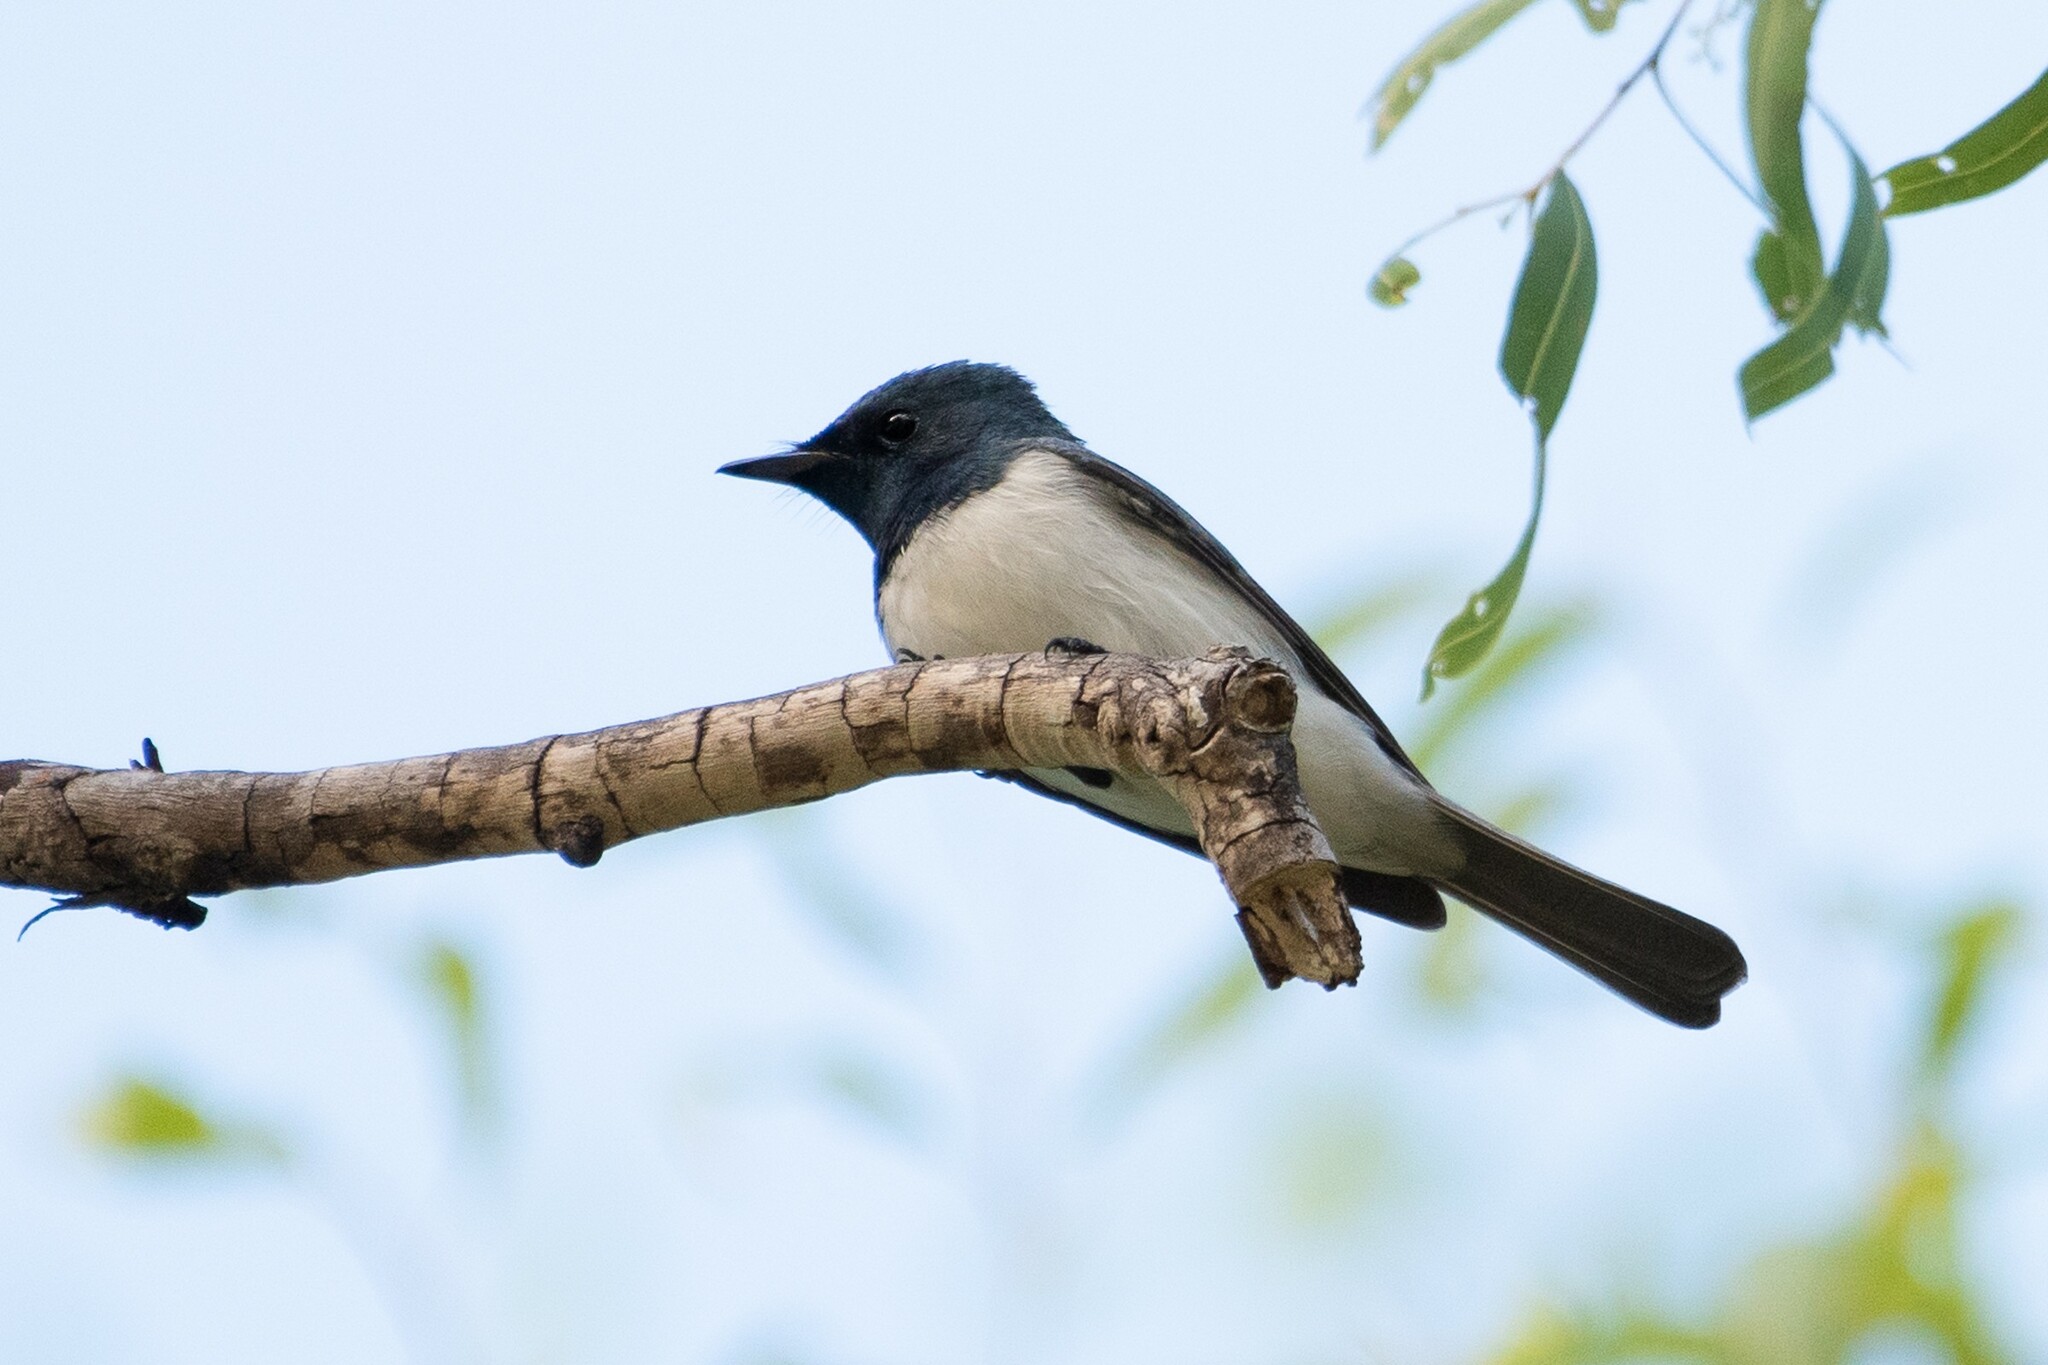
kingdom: Animalia
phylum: Chordata
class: Aves
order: Passeriformes
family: Monarchidae
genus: Myiagra
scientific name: Myiagra rubecula
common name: Leaden flycatcher
